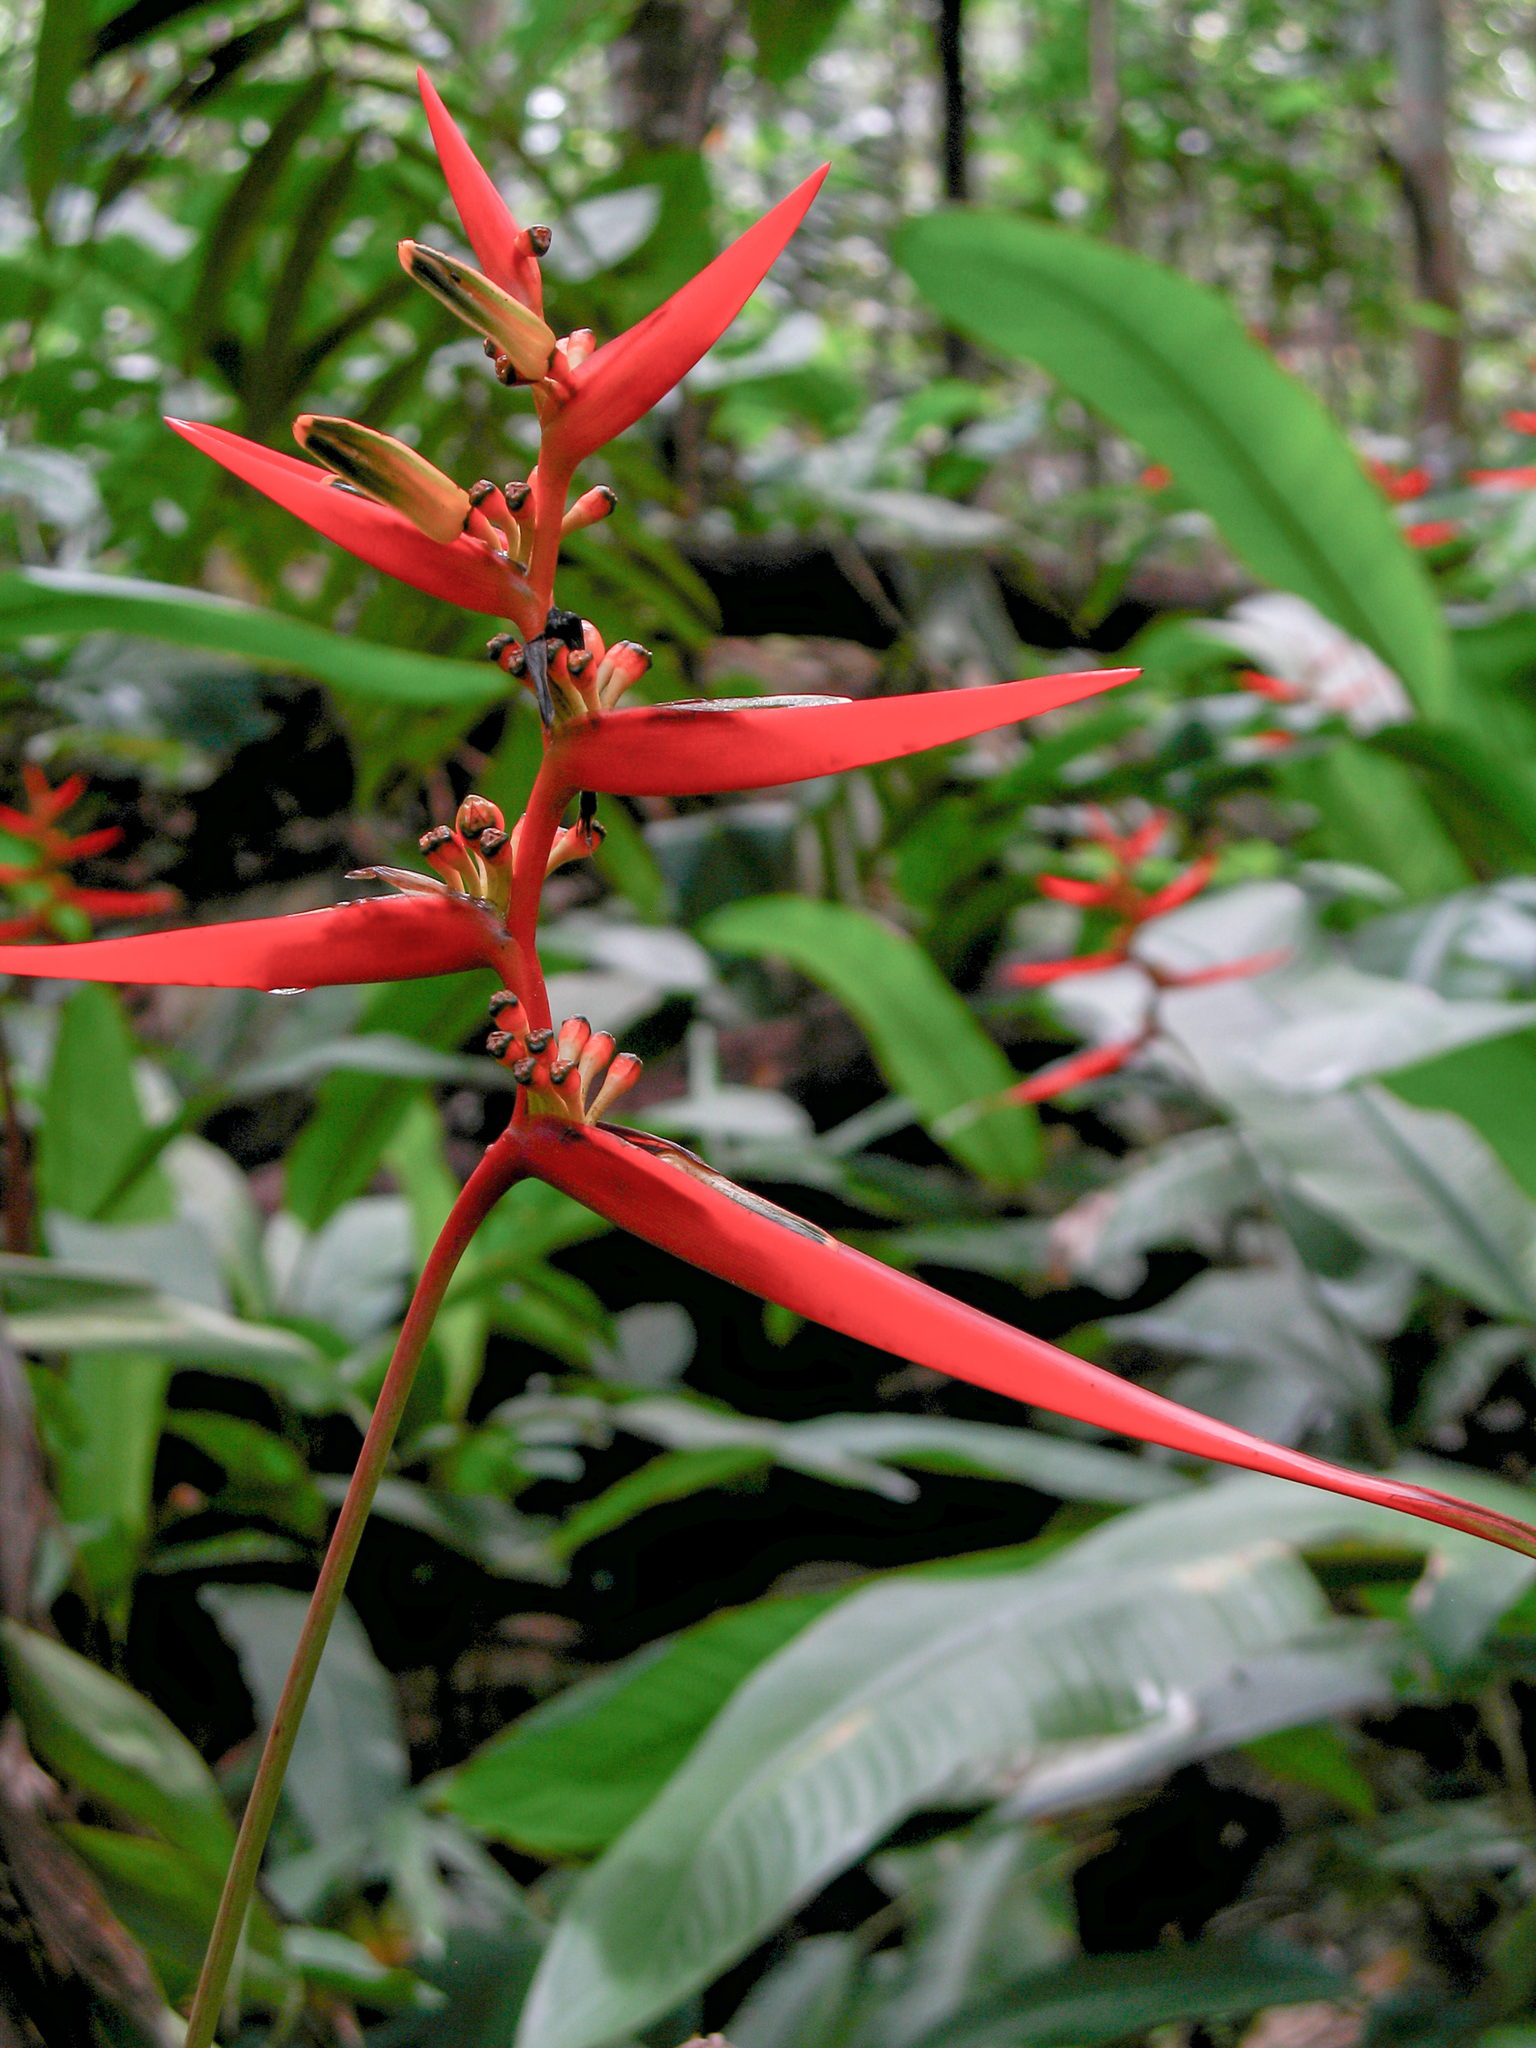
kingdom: Plantae
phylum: Tracheophyta
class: Liliopsida
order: Zingiberales
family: Heliconiaceae
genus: Heliconia
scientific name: Heliconia acuminata
